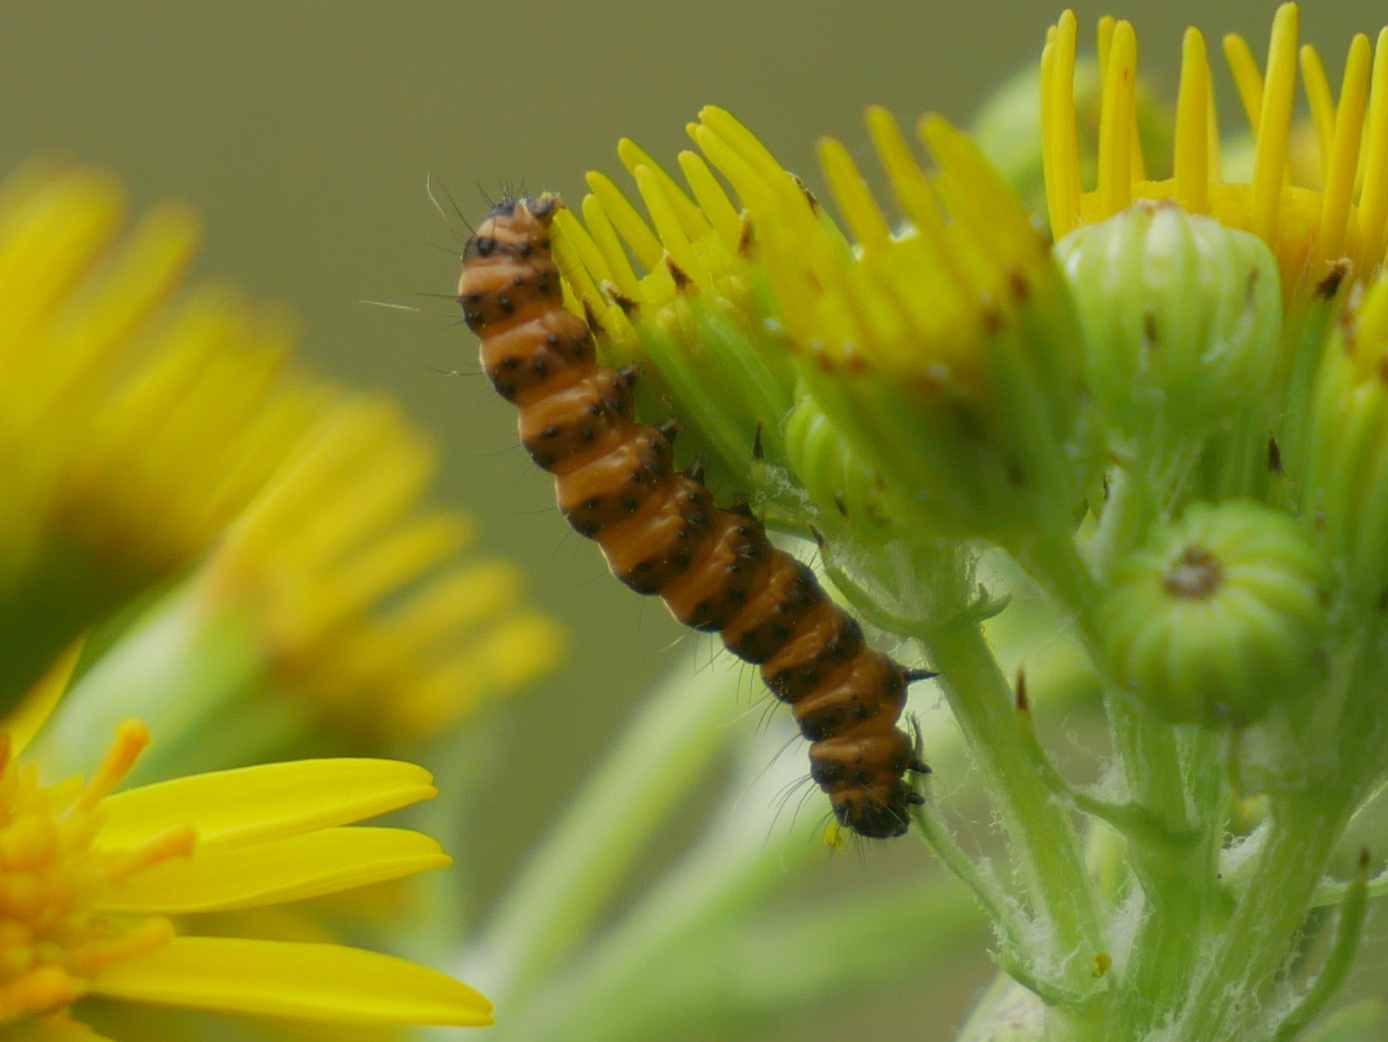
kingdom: Animalia
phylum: Arthropoda
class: Insecta
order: Lepidoptera
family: Erebidae
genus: Tyria
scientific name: Tyria jacobaeae
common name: Cinnabar
